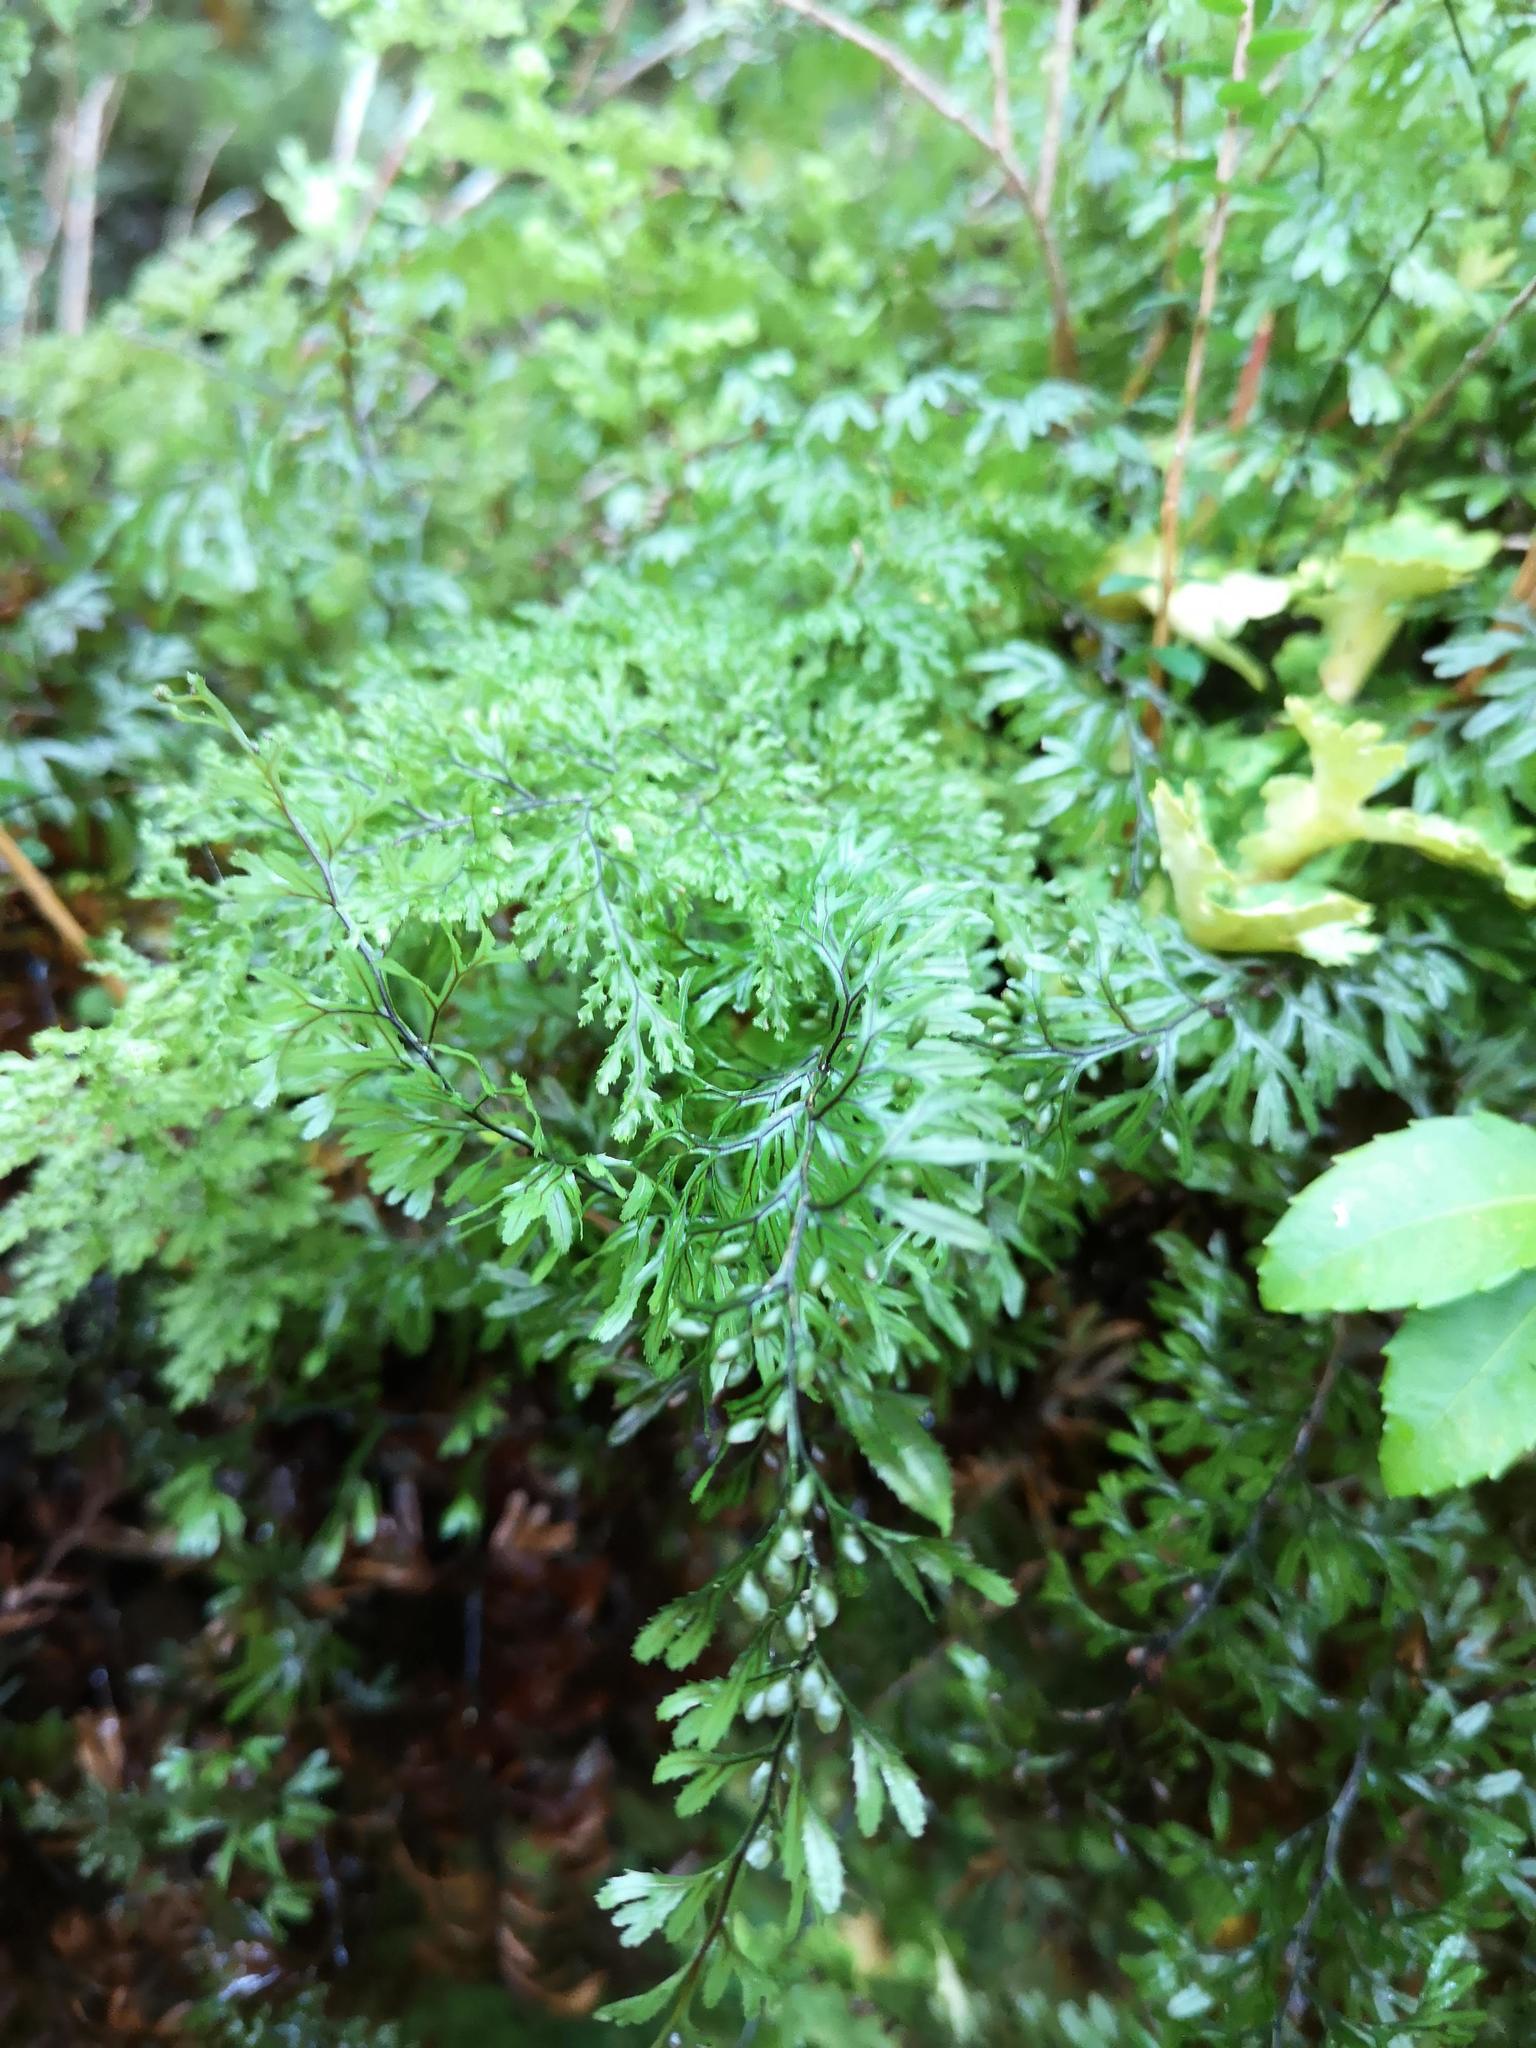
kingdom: Plantae
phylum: Tracheophyta
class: Polypodiopsida
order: Hymenophyllales
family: Hymenophyllaceae
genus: Hymenophyllum
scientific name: Hymenophyllum secundum
